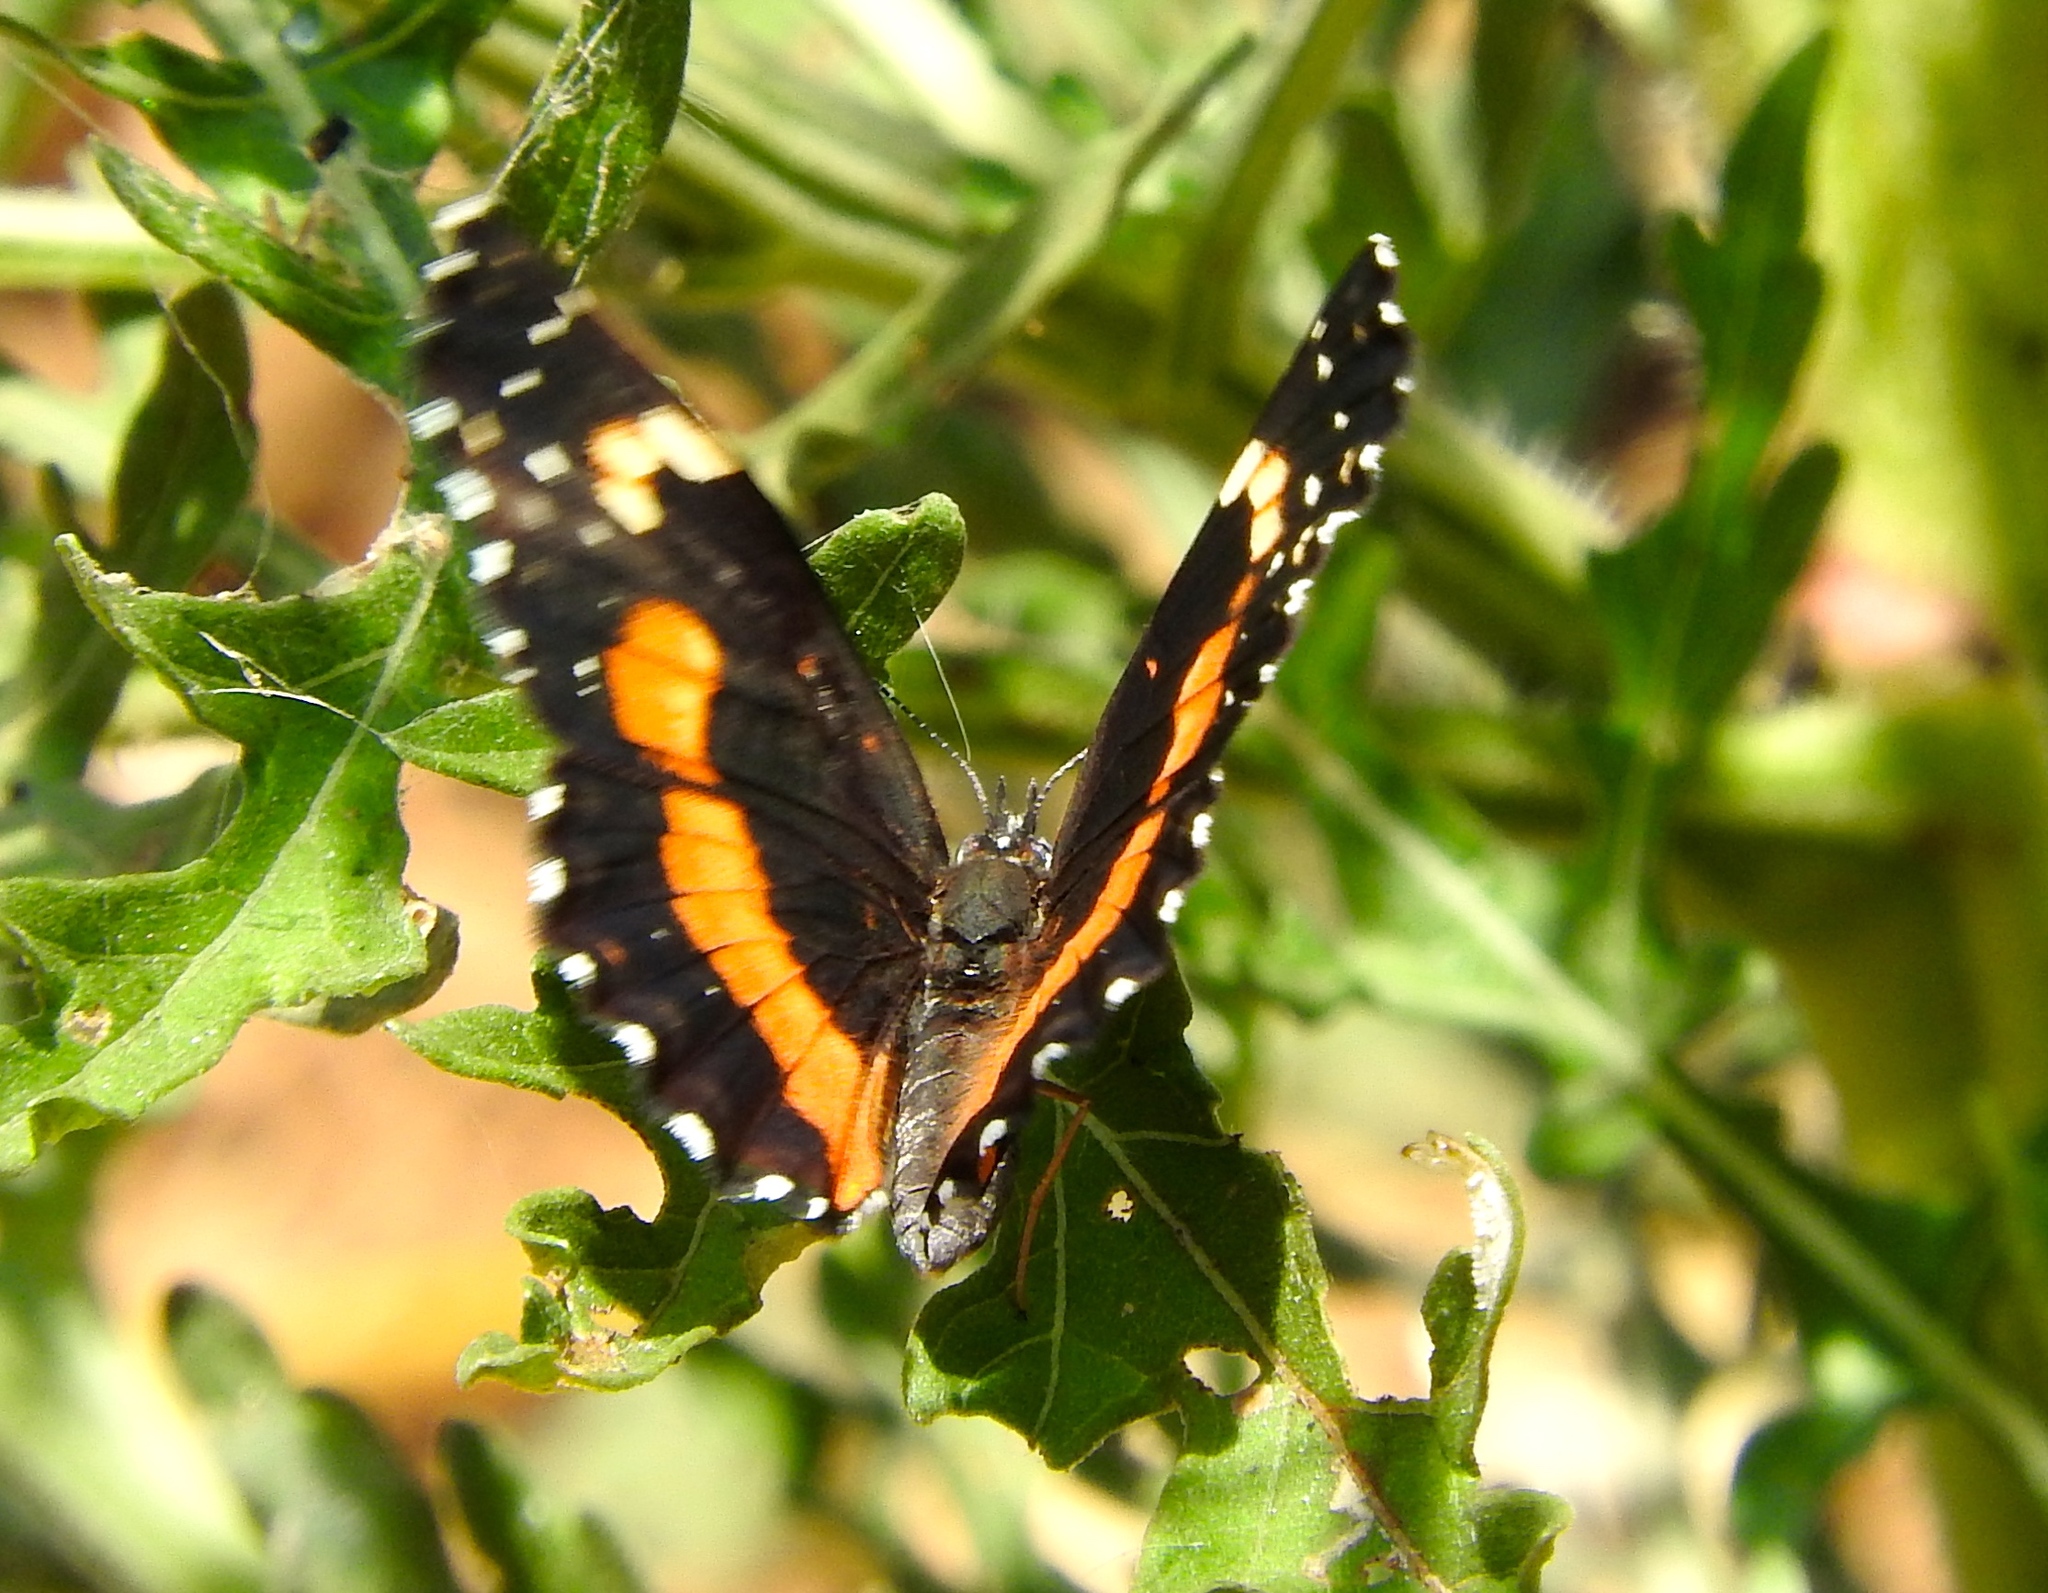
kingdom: Animalia
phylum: Arthropoda
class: Insecta
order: Lepidoptera
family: Nymphalidae
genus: Chlosyne
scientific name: Chlosyne lacinia
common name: Bordered patch
